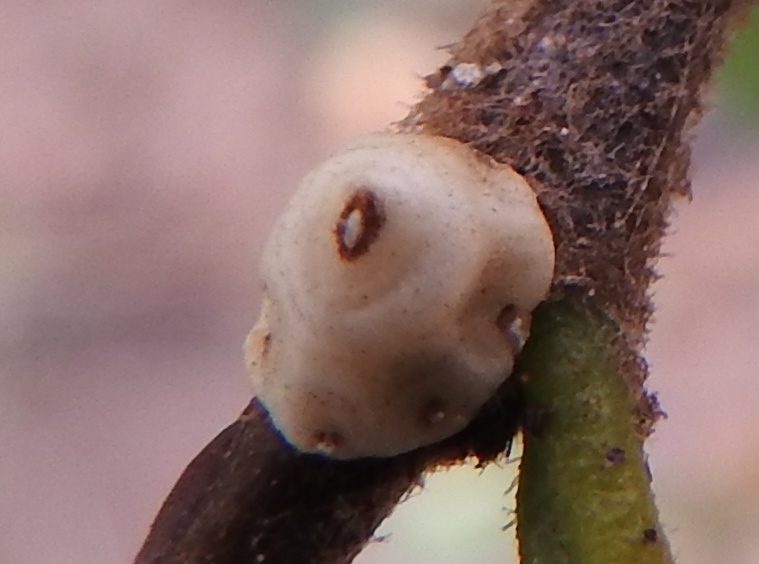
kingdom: Animalia
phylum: Arthropoda
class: Insecta
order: Hemiptera
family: Coccidae
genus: Ceroplastes
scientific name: Ceroplastes cirripediformis
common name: Barnacle scale
